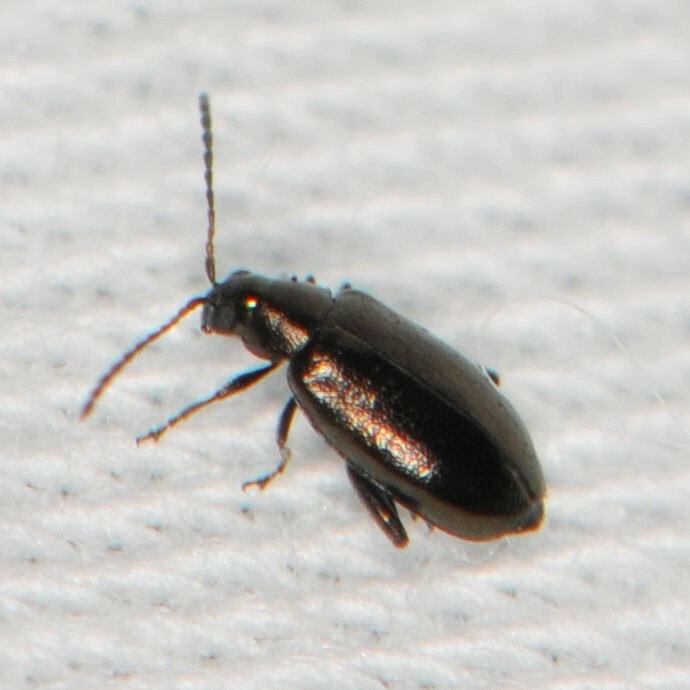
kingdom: Animalia
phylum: Arthropoda
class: Insecta
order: Coleoptera
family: Chrysomelidae
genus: Phyllotreta
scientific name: Phyllotreta
